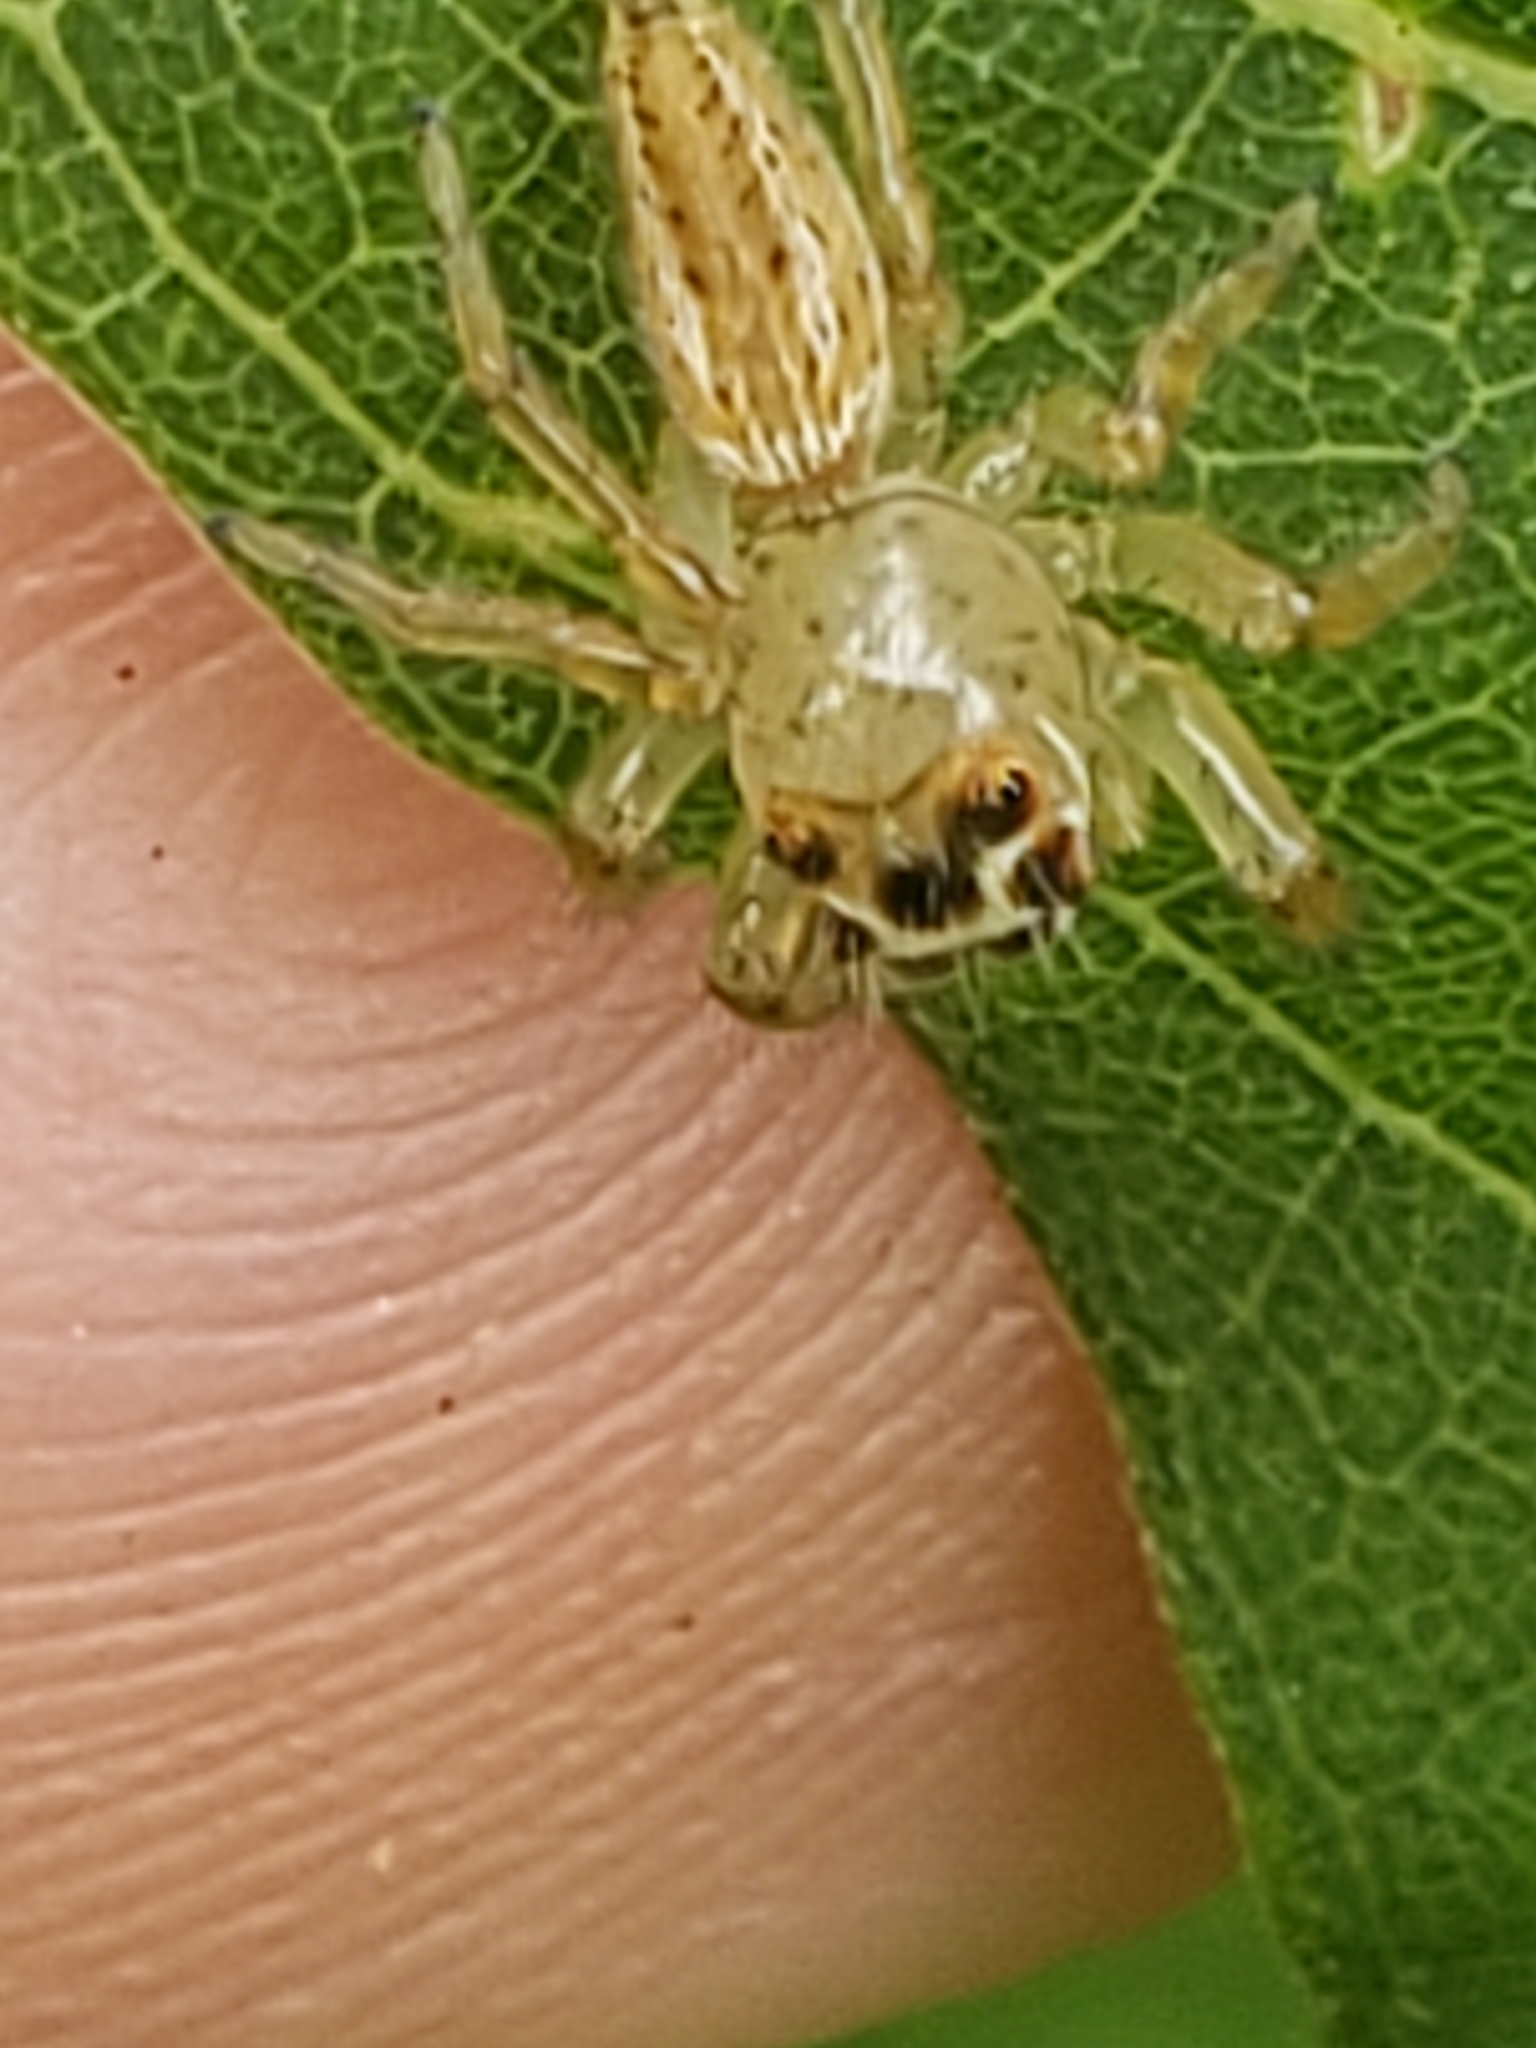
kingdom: Animalia
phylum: Arthropoda
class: Arachnida
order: Araneae
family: Salticidae
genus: Colonus
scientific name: Colonus sylvanus
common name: Jumping spiders
